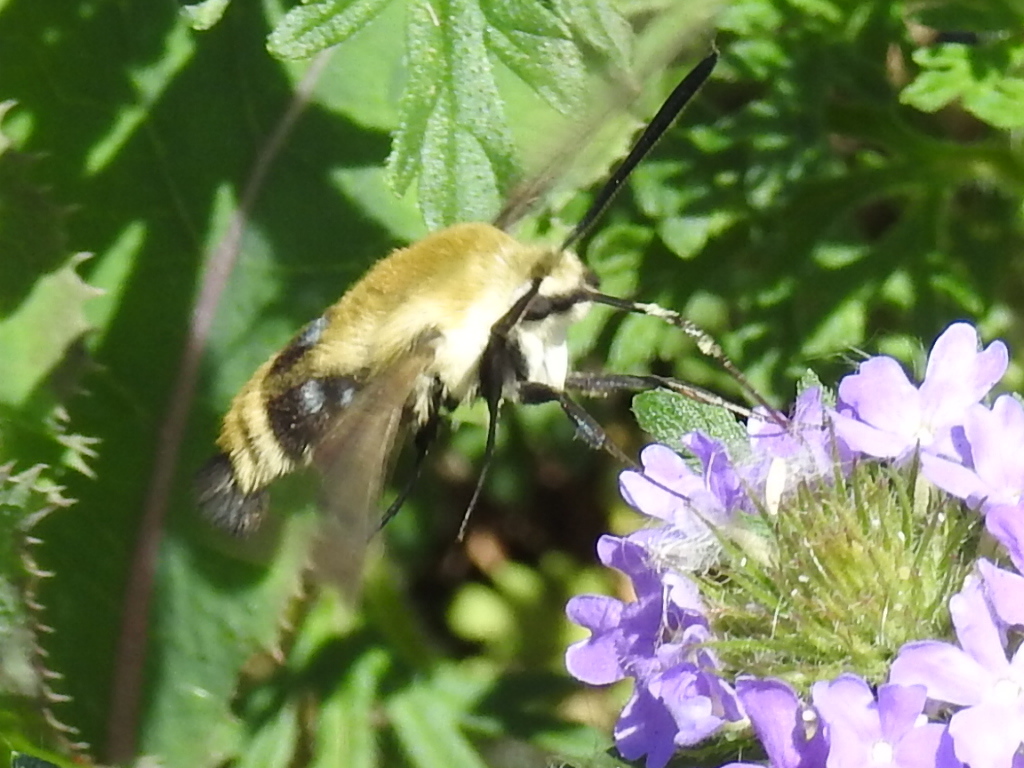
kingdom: Animalia
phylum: Arthropoda
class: Insecta
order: Lepidoptera
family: Sphingidae
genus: Hemaris
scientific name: Hemaris diffinis
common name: Bumblebee moth
